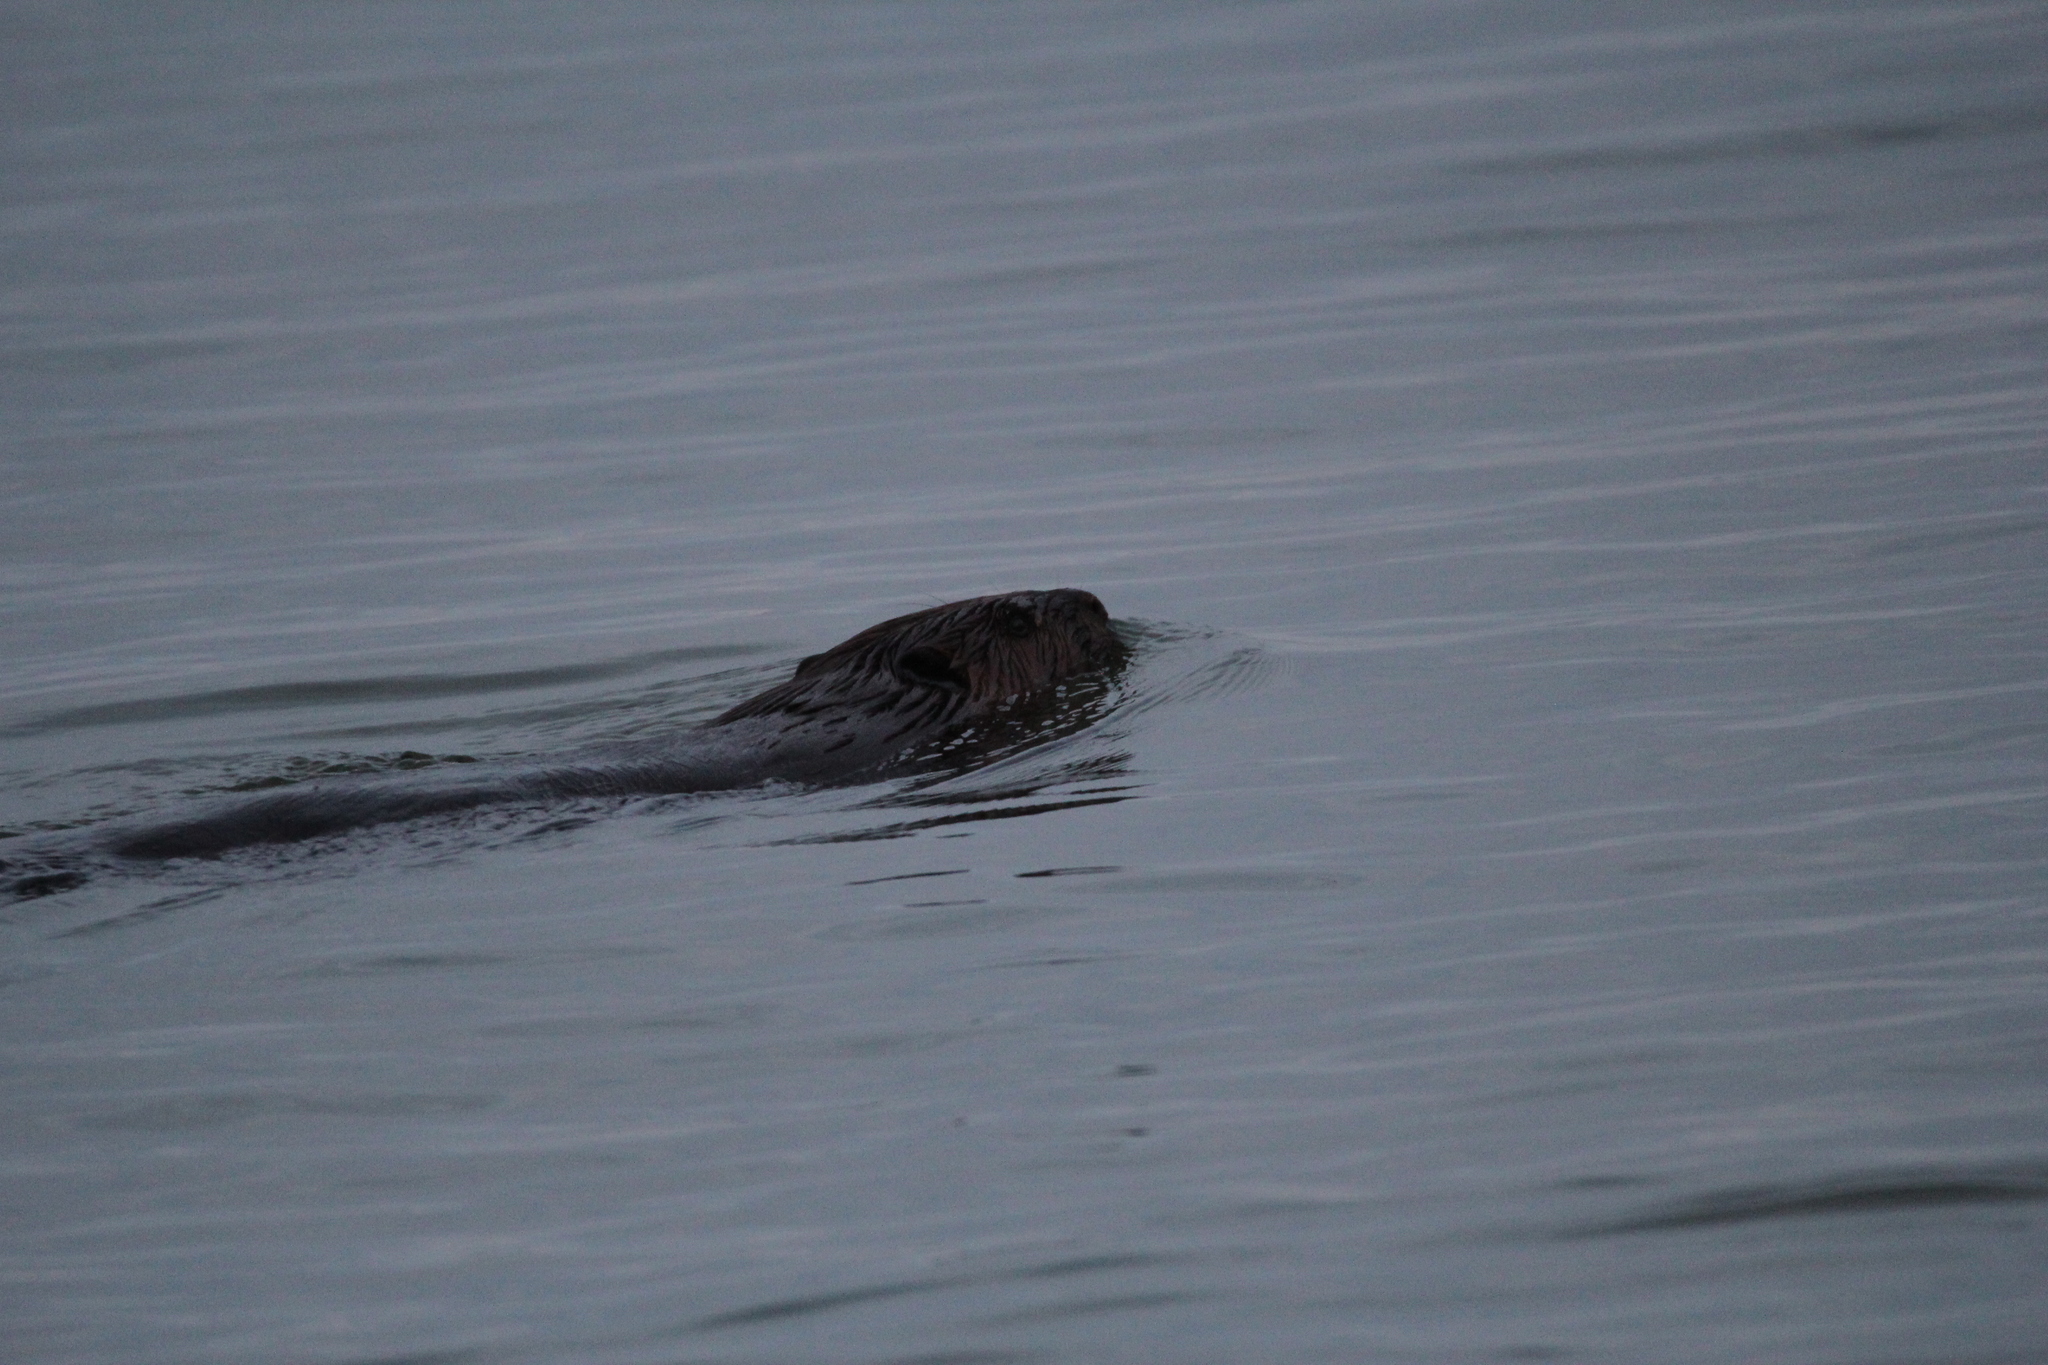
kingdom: Animalia
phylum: Chordata
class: Mammalia
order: Rodentia
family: Castoridae
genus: Castor
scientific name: Castor canadensis
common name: American beaver
